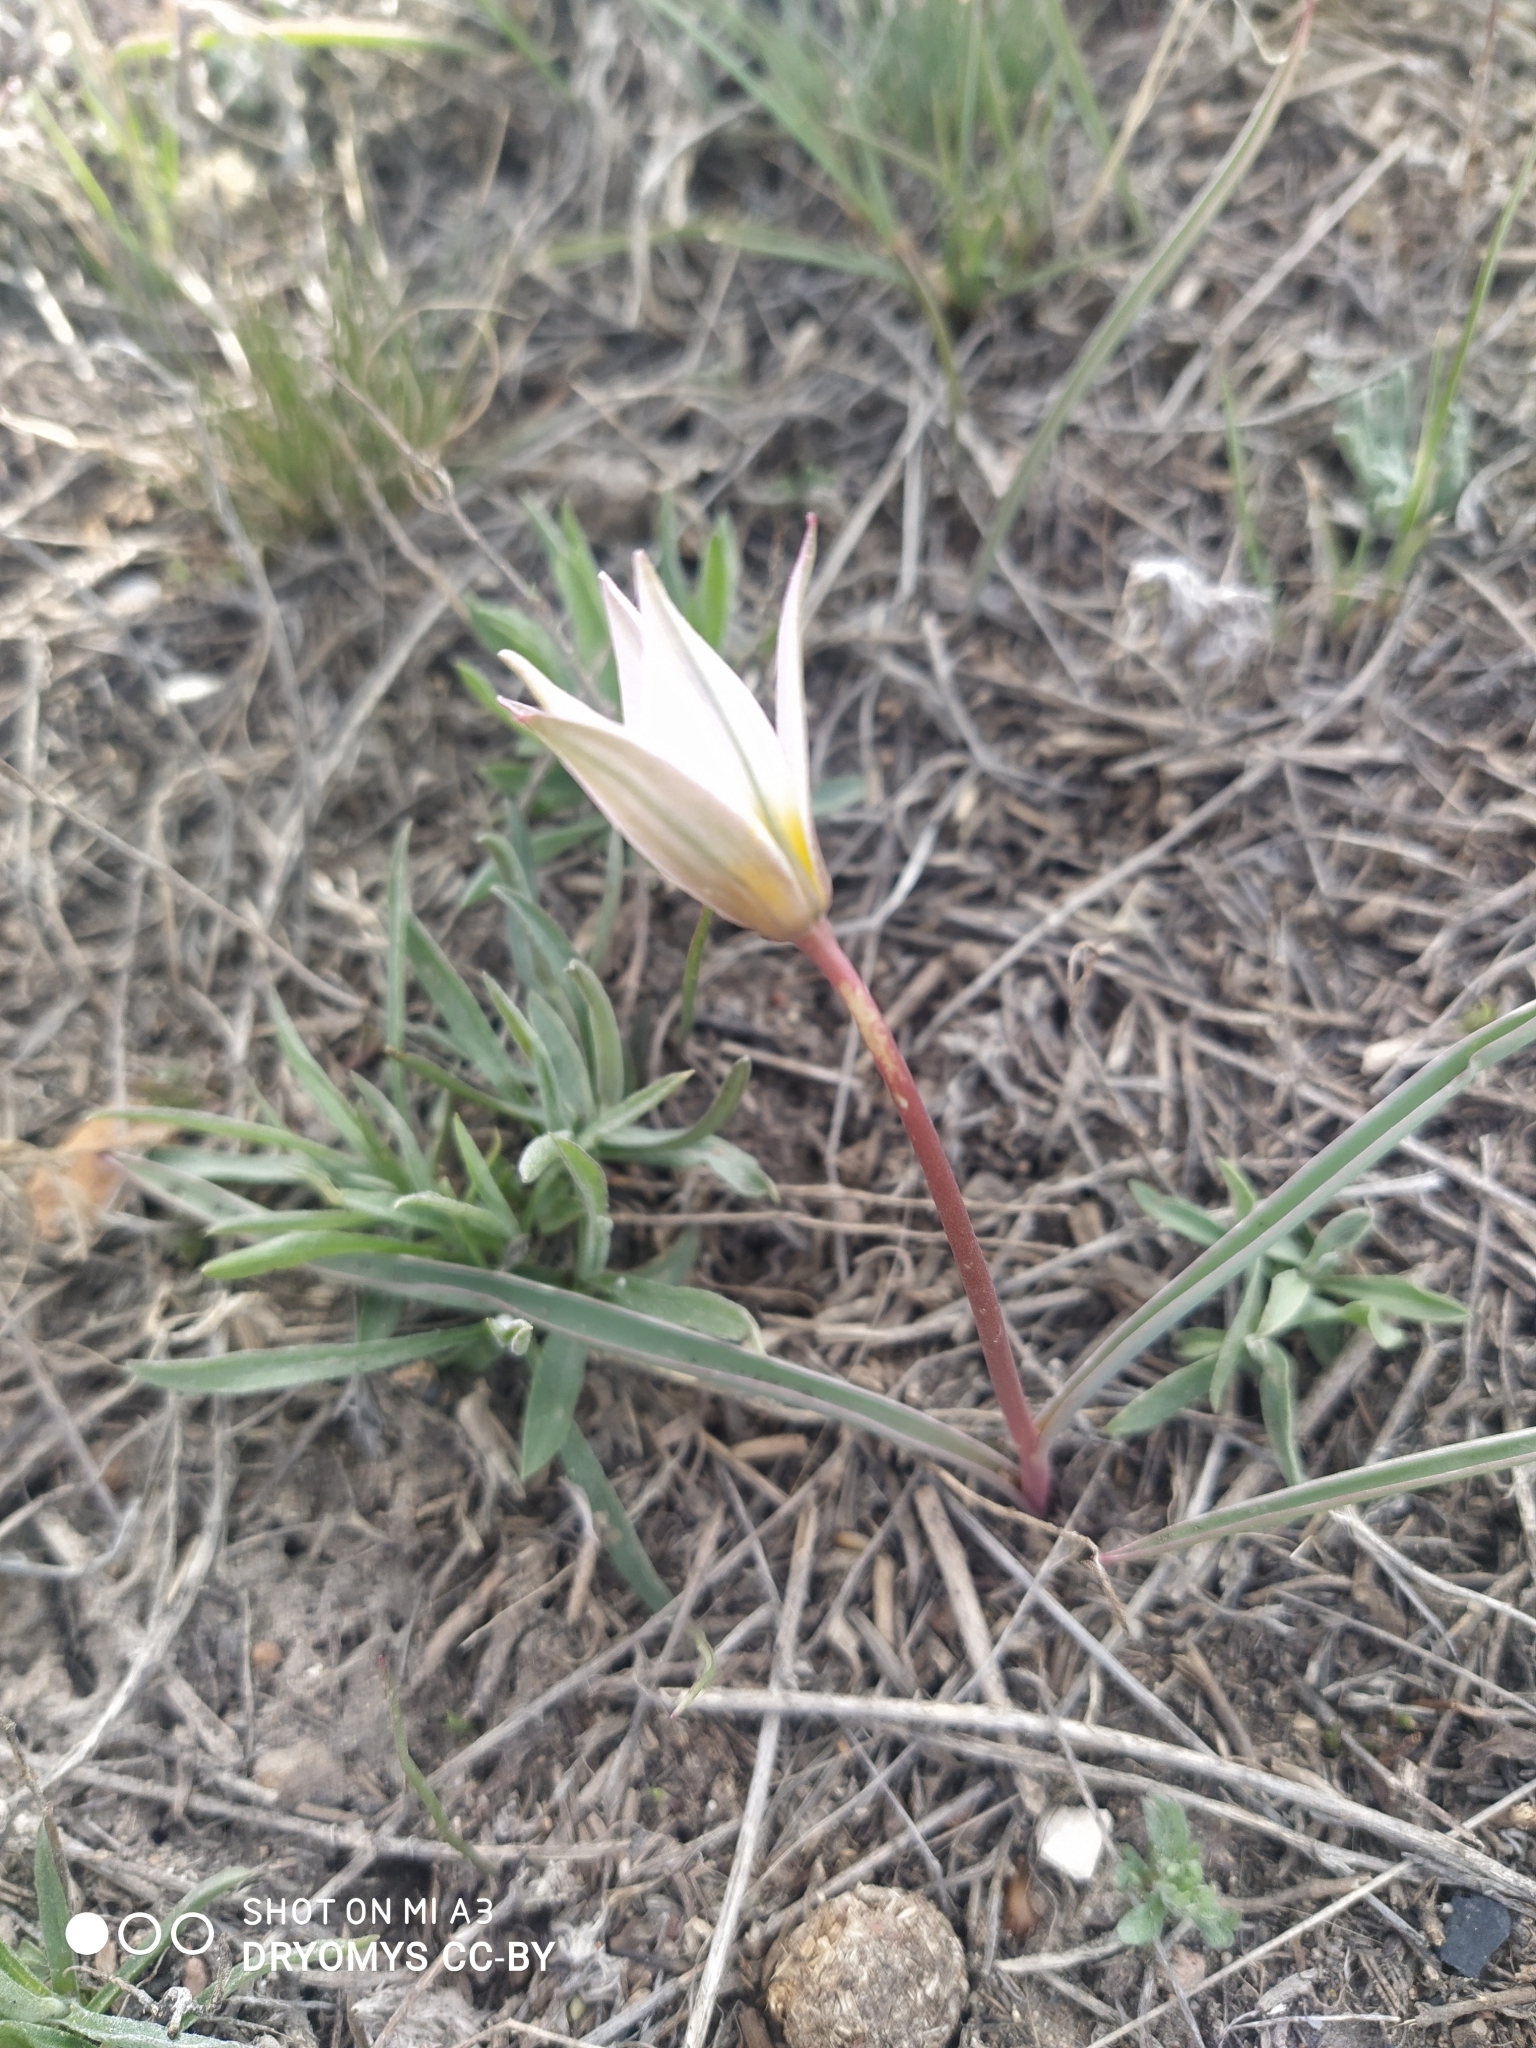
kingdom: Plantae
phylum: Tracheophyta
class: Liliopsida
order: Liliales
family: Liliaceae
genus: Tulipa
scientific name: Tulipa patens
